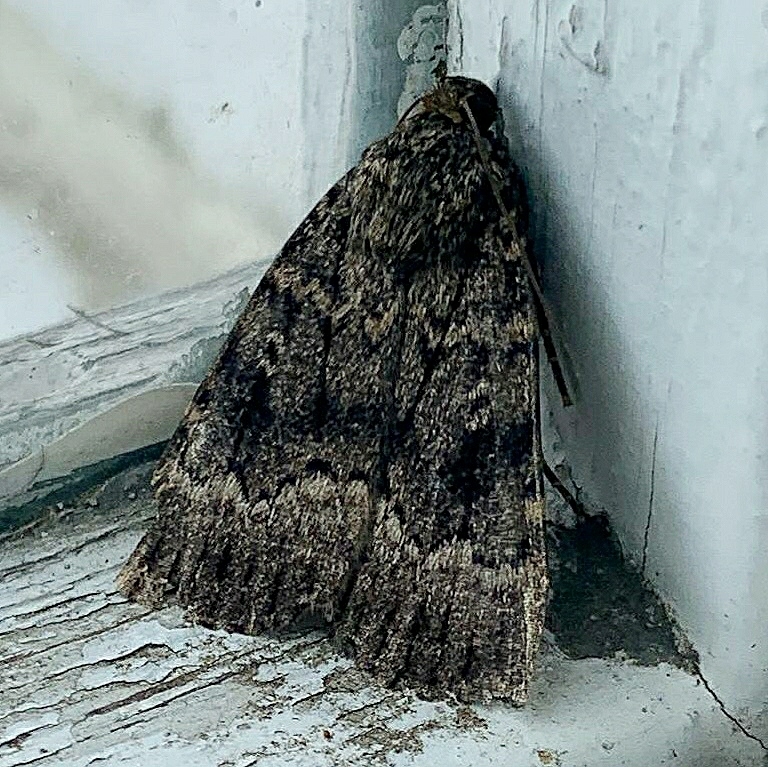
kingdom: Animalia
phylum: Arthropoda
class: Insecta
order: Lepidoptera
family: Noctuidae
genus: Amphipyra
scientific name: Amphipyra berbera
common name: Svensson's copper underwing
